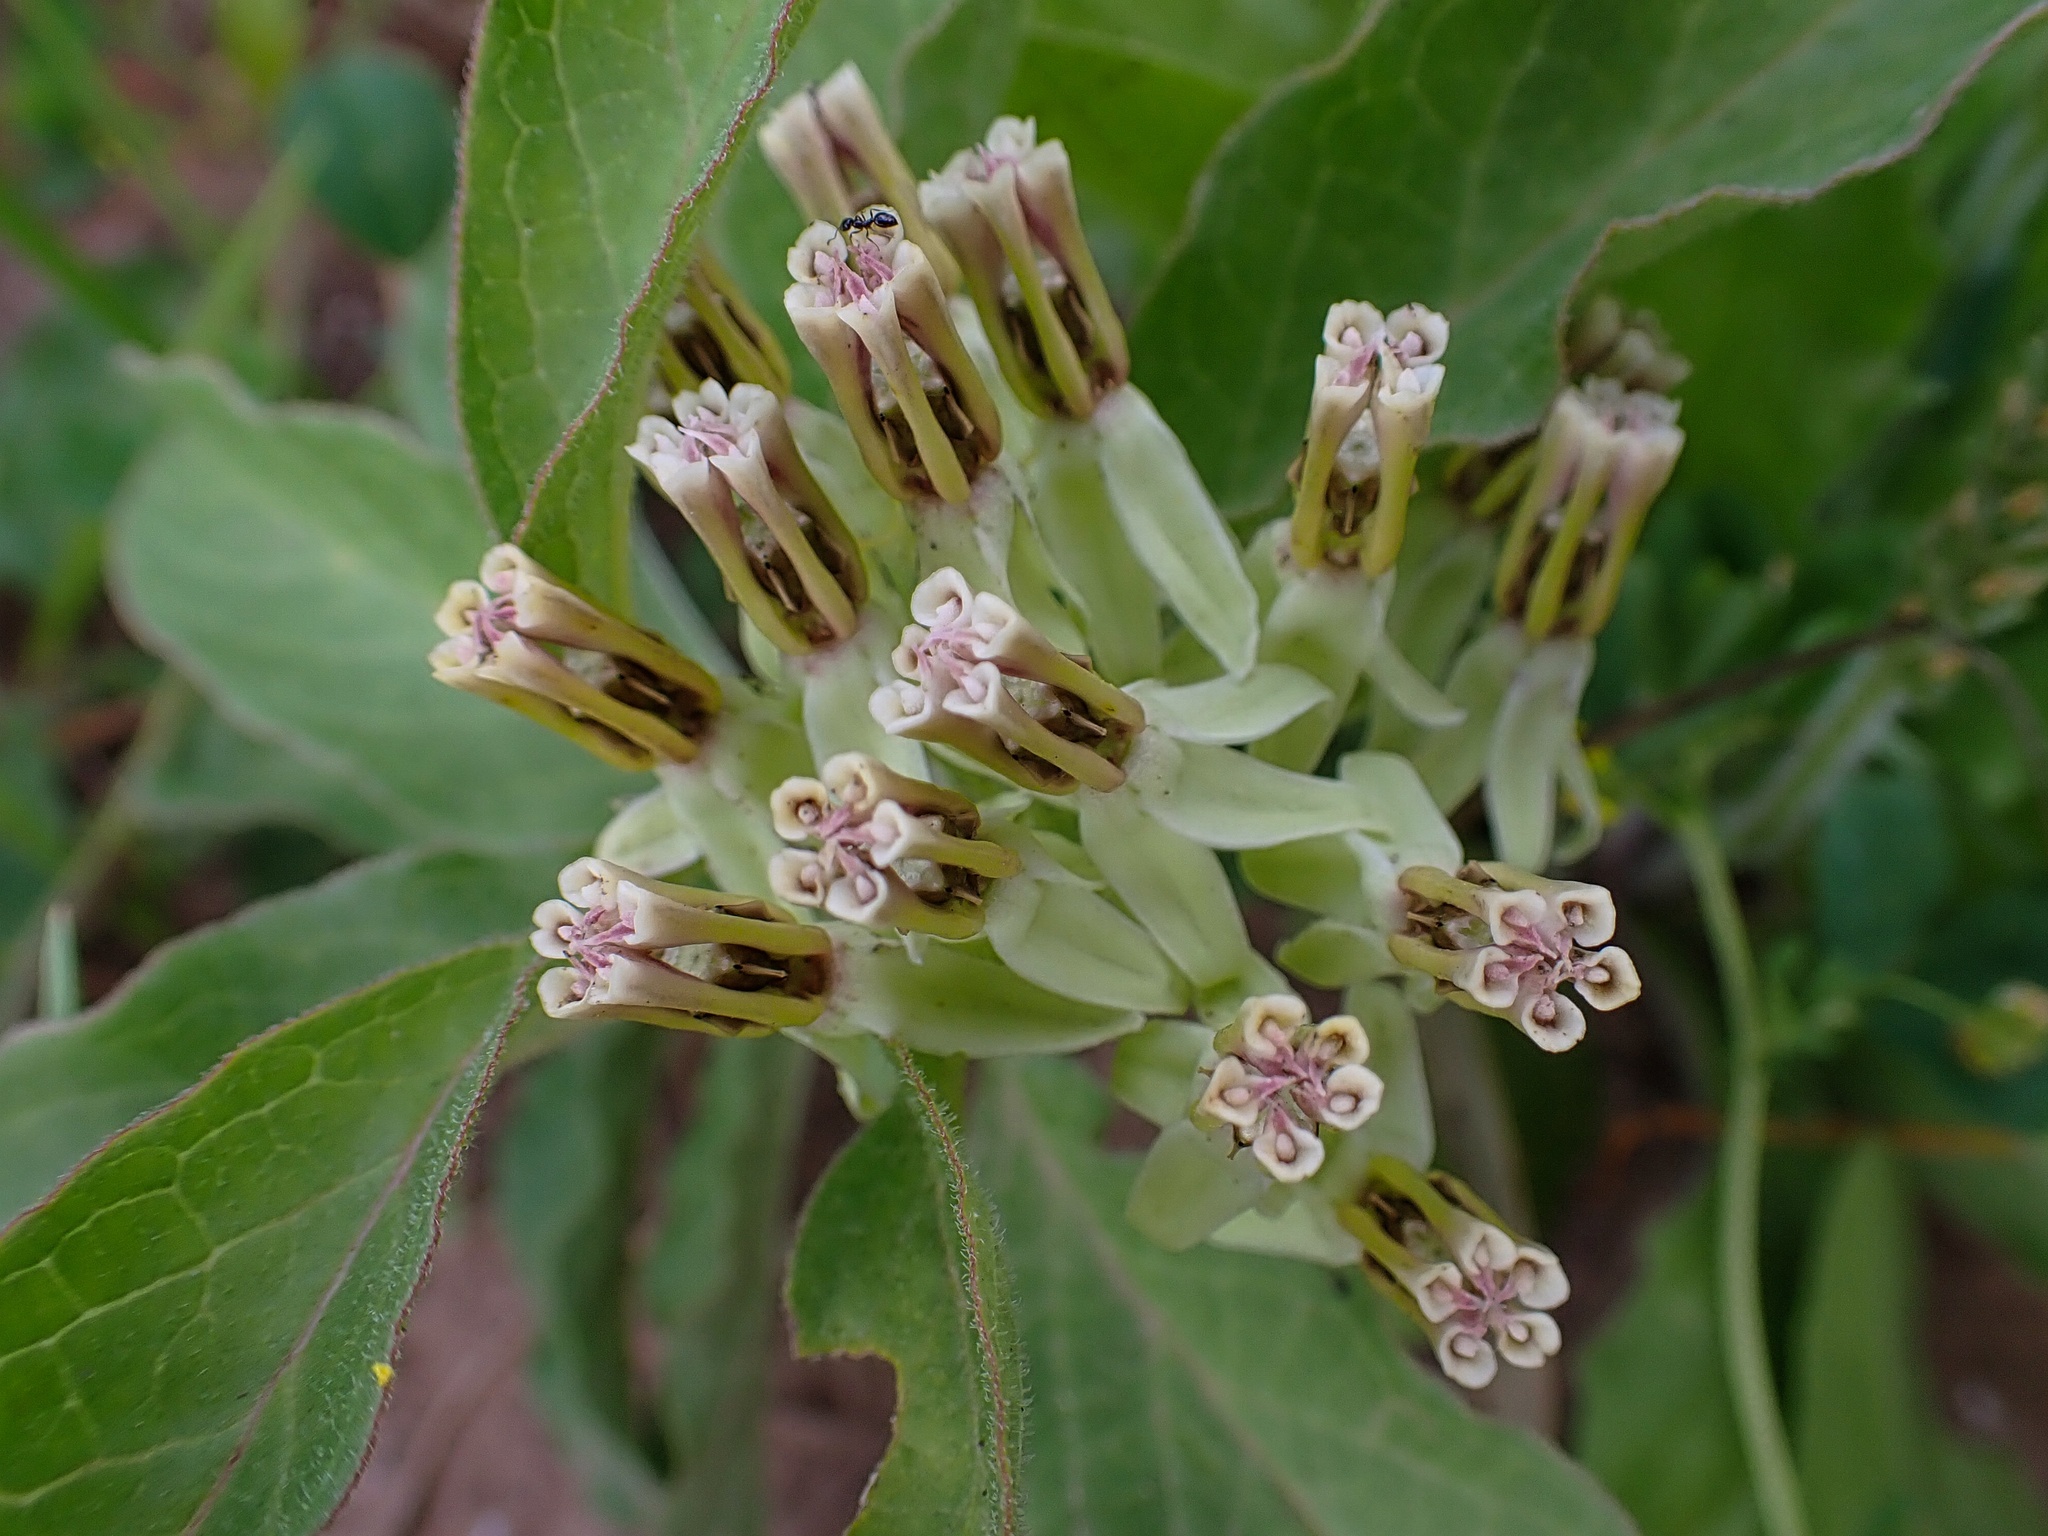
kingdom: Plantae
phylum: Tracheophyta
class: Magnoliopsida
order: Gentianales
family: Apocynaceae
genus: Asclepias
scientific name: Asclepias oenotheroides
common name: Zizotes milkweed
